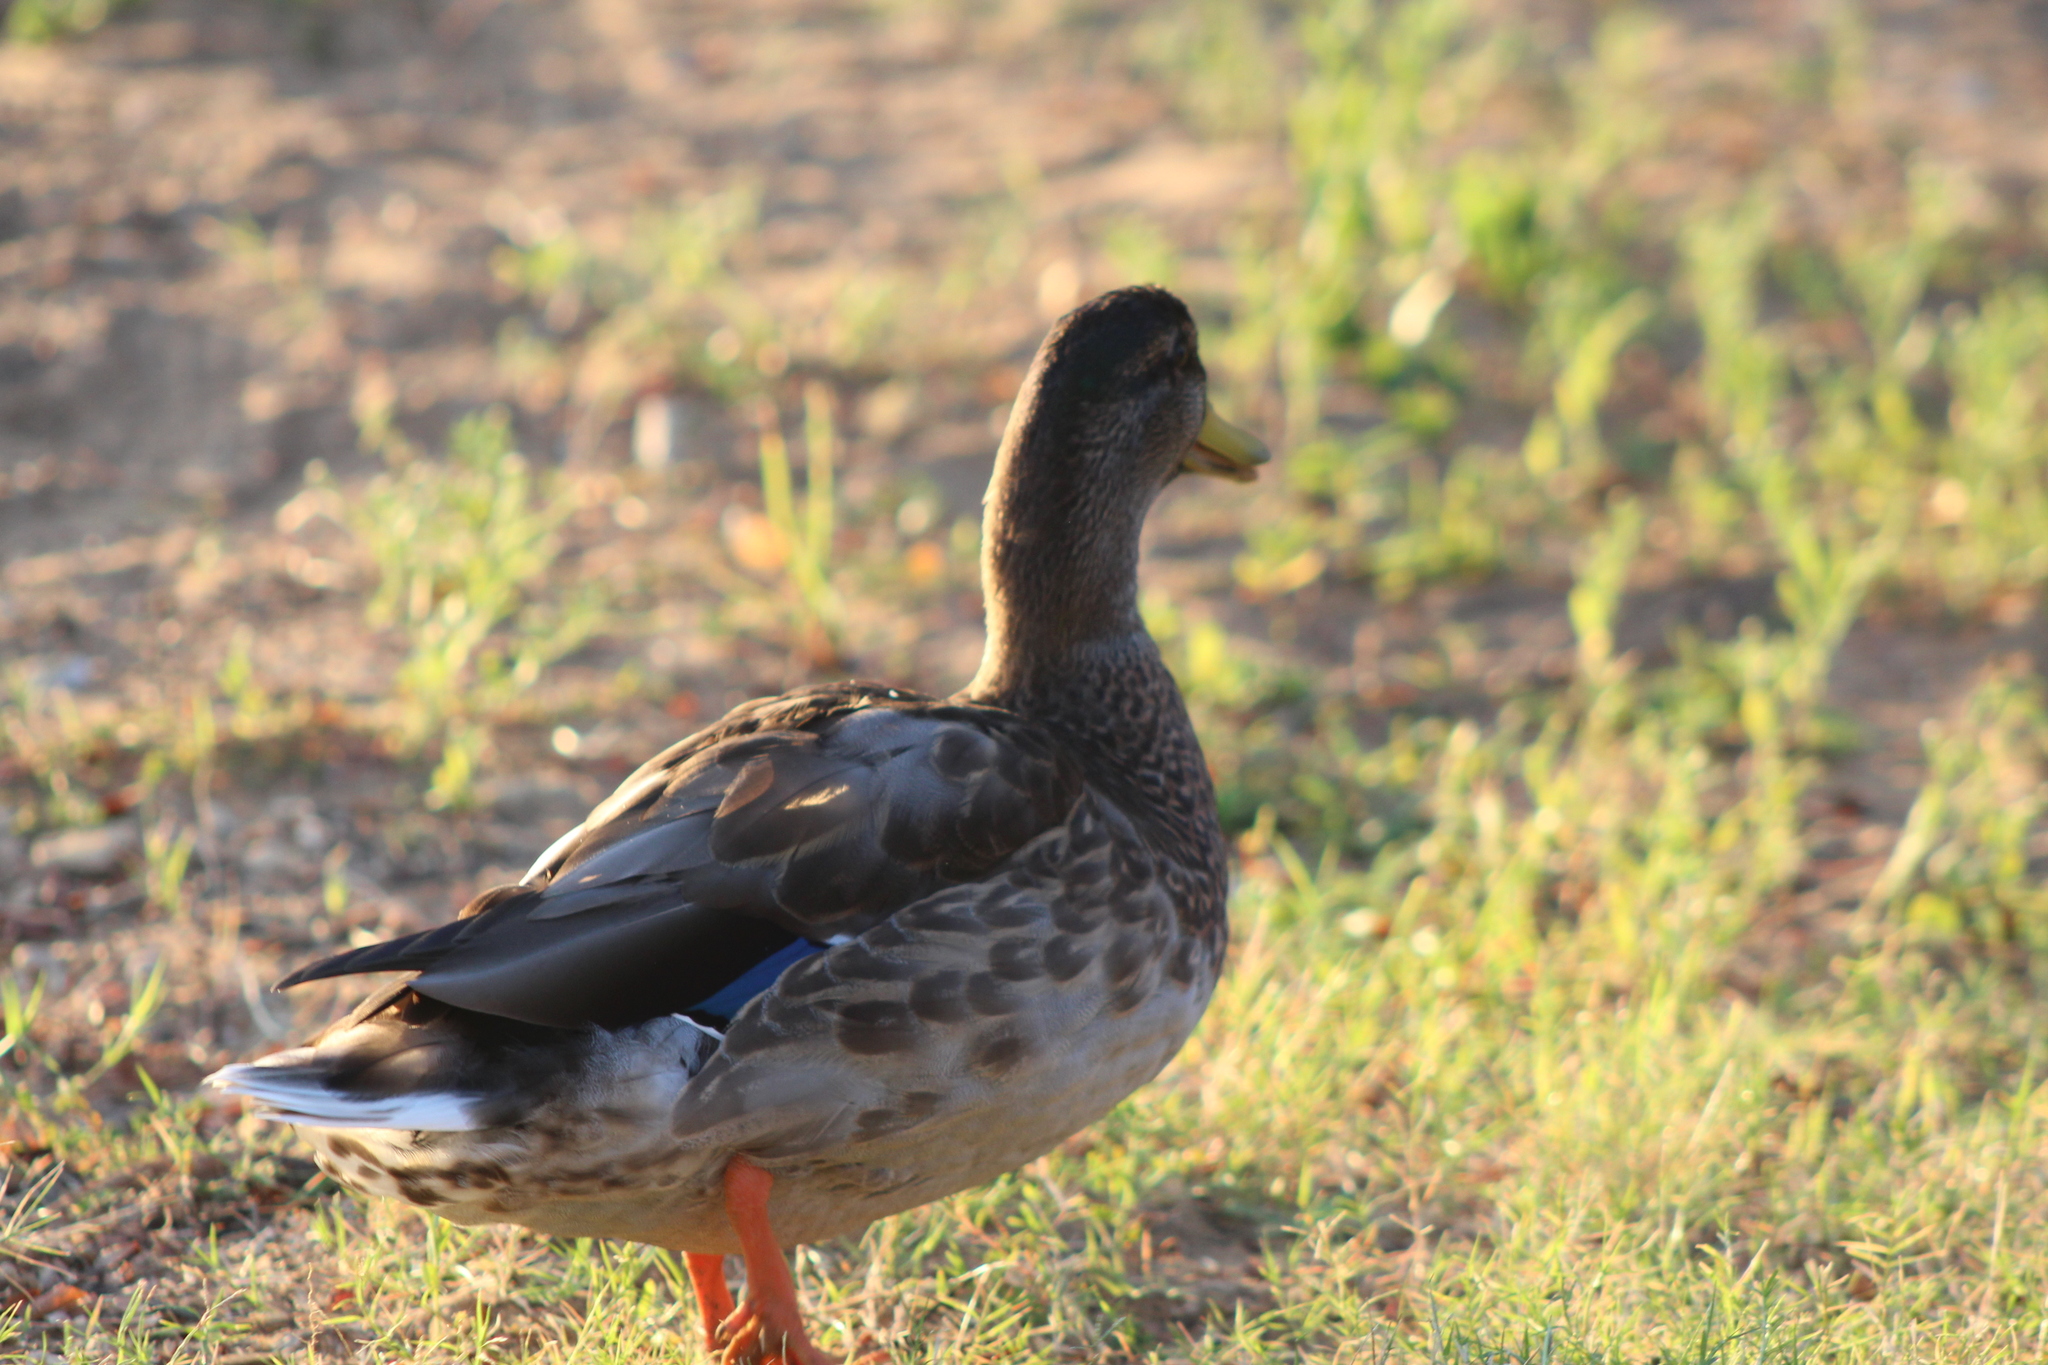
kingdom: Animalia
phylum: Chordata
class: Aves
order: Anseriformes
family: Anatidae
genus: Anas
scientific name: Anas platyrhynchos
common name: Mallard
